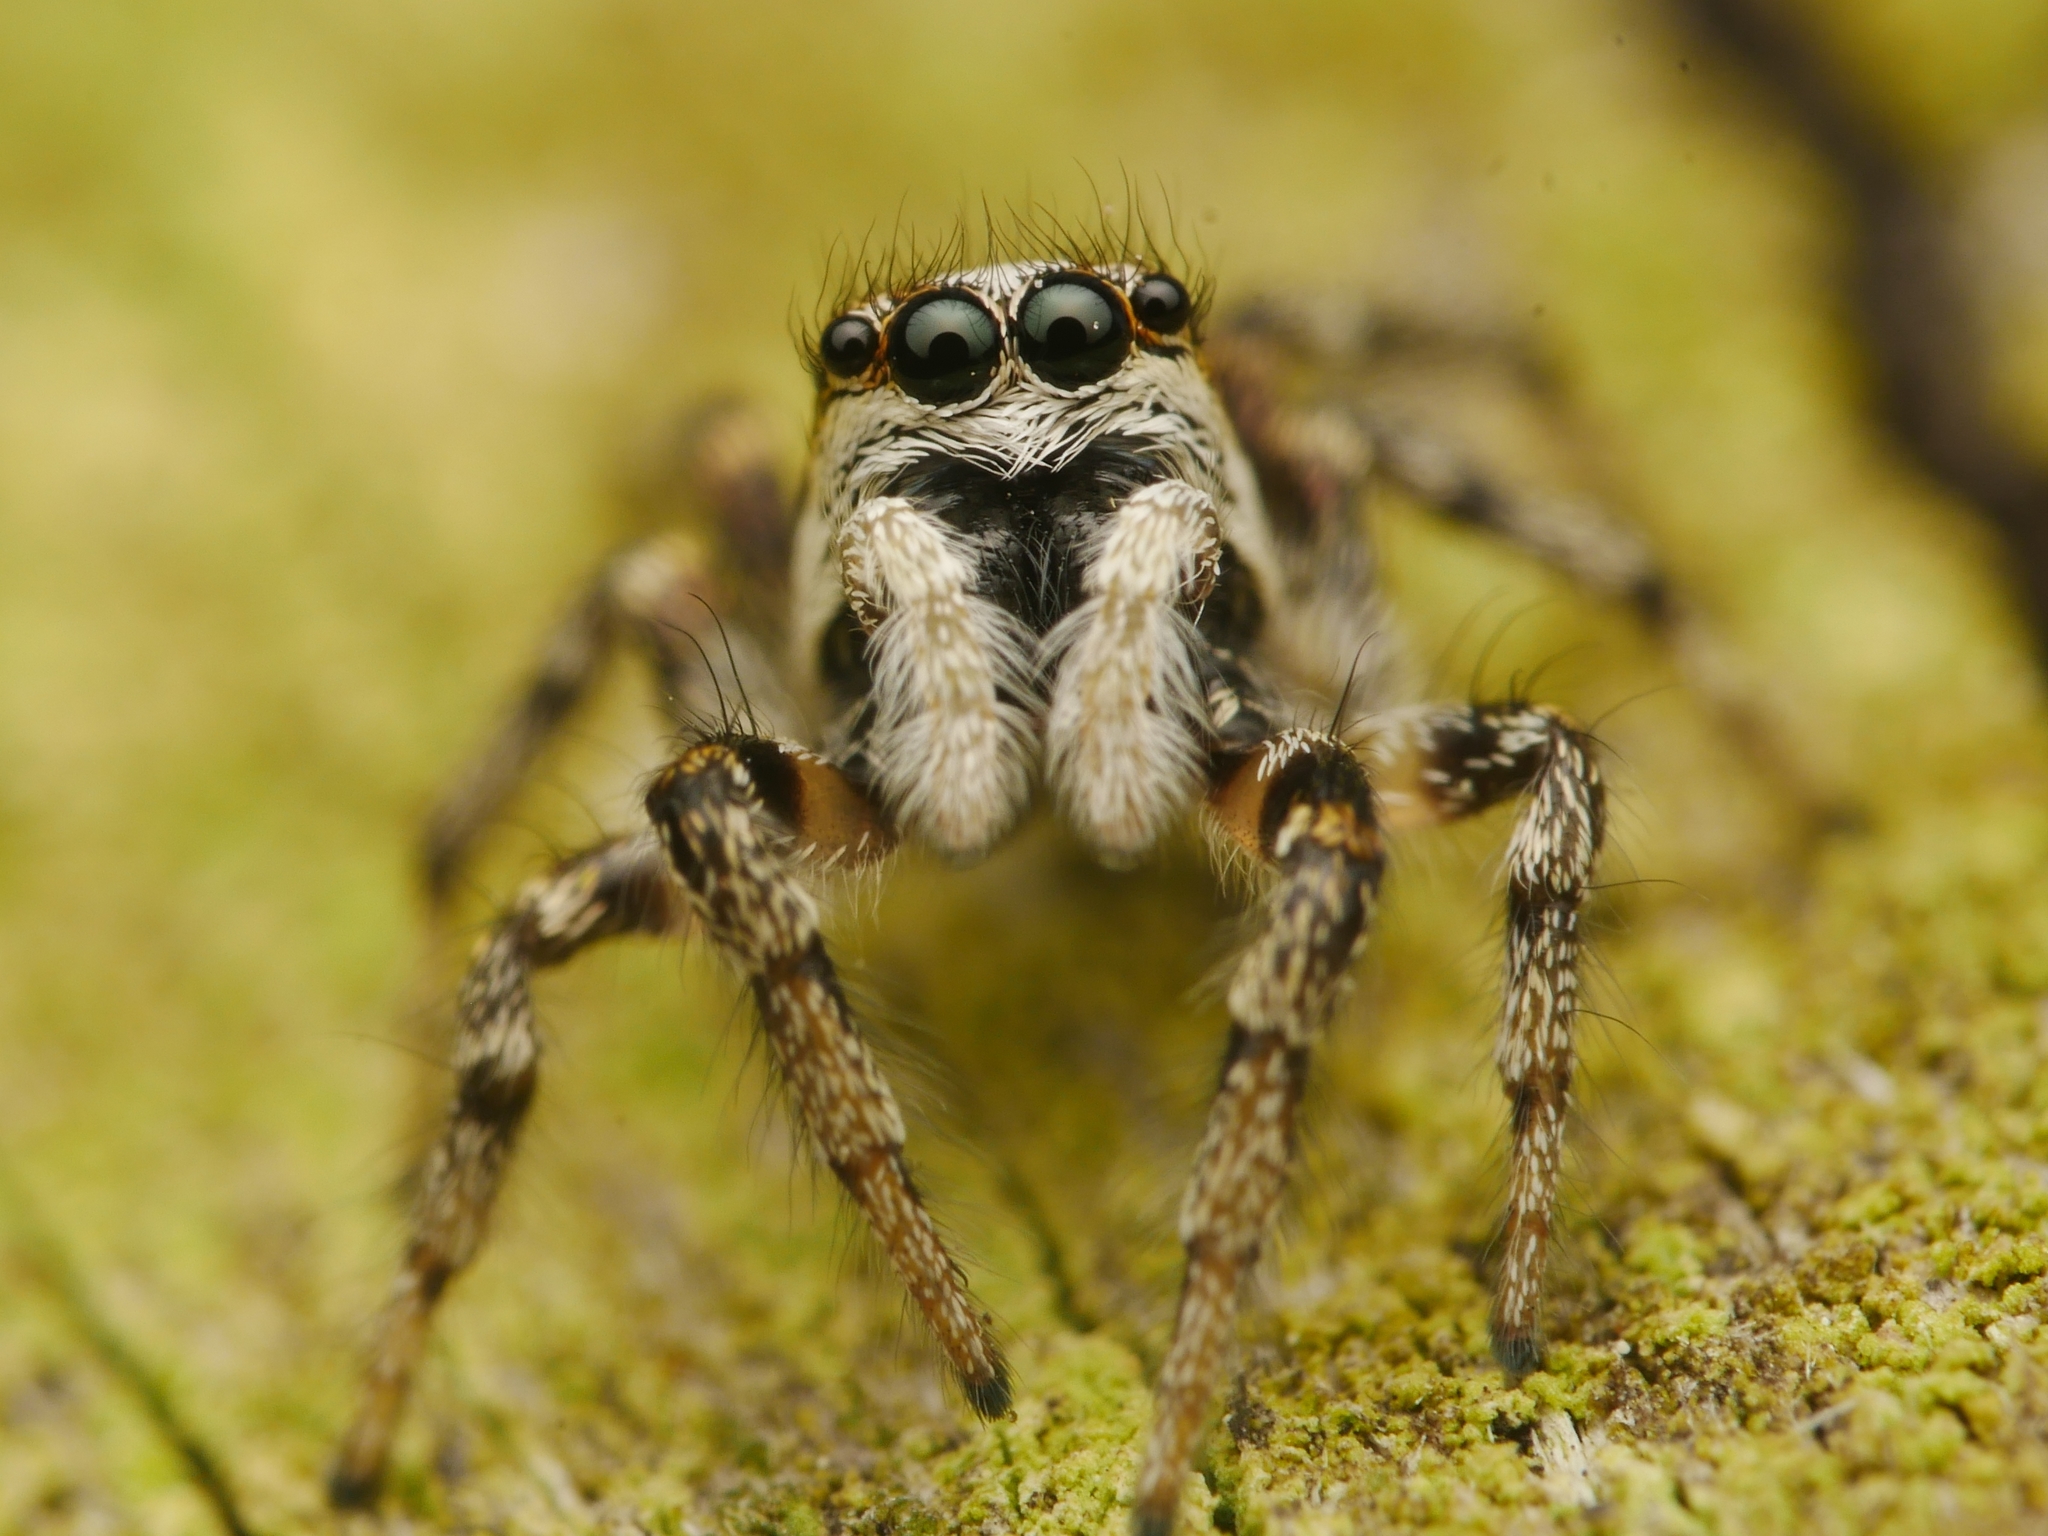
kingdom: Animalia
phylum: Arthropoda
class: Arachnida
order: Araneae
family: Salticidae
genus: Salticus
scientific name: Salticus scenicus
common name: Zebra jumper
